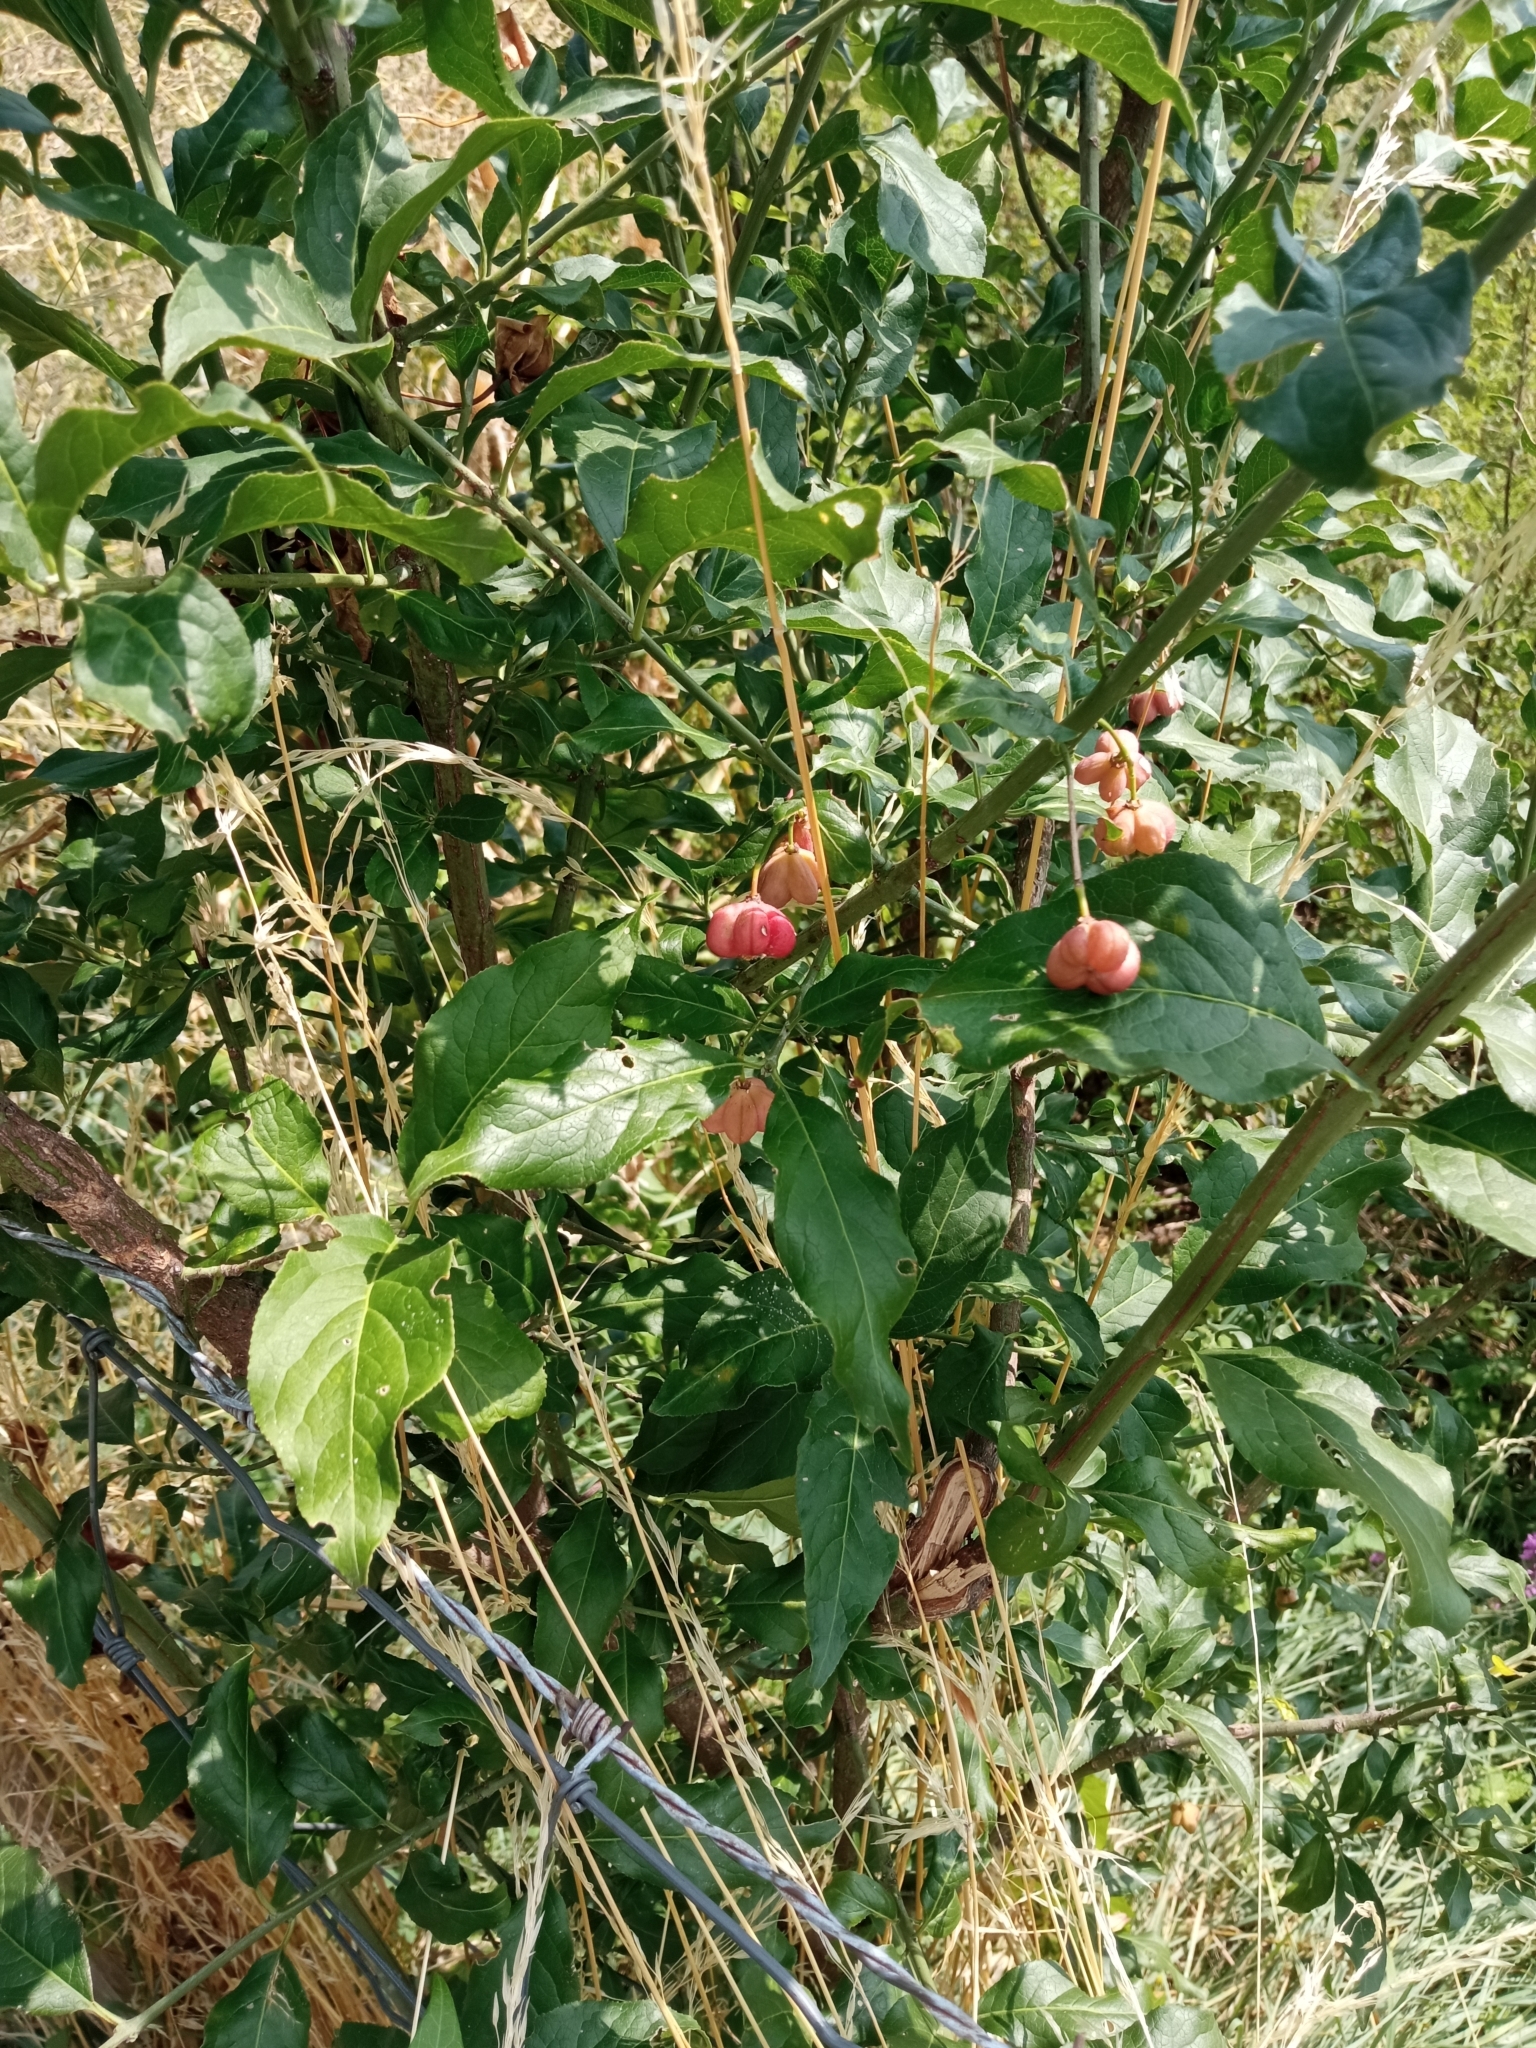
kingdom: Plantae
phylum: Tracheophyta
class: Magnoliopsida
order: Celastrales
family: Celastraceae
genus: Euonymus
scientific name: Euonymus europaeus
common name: Spindle
